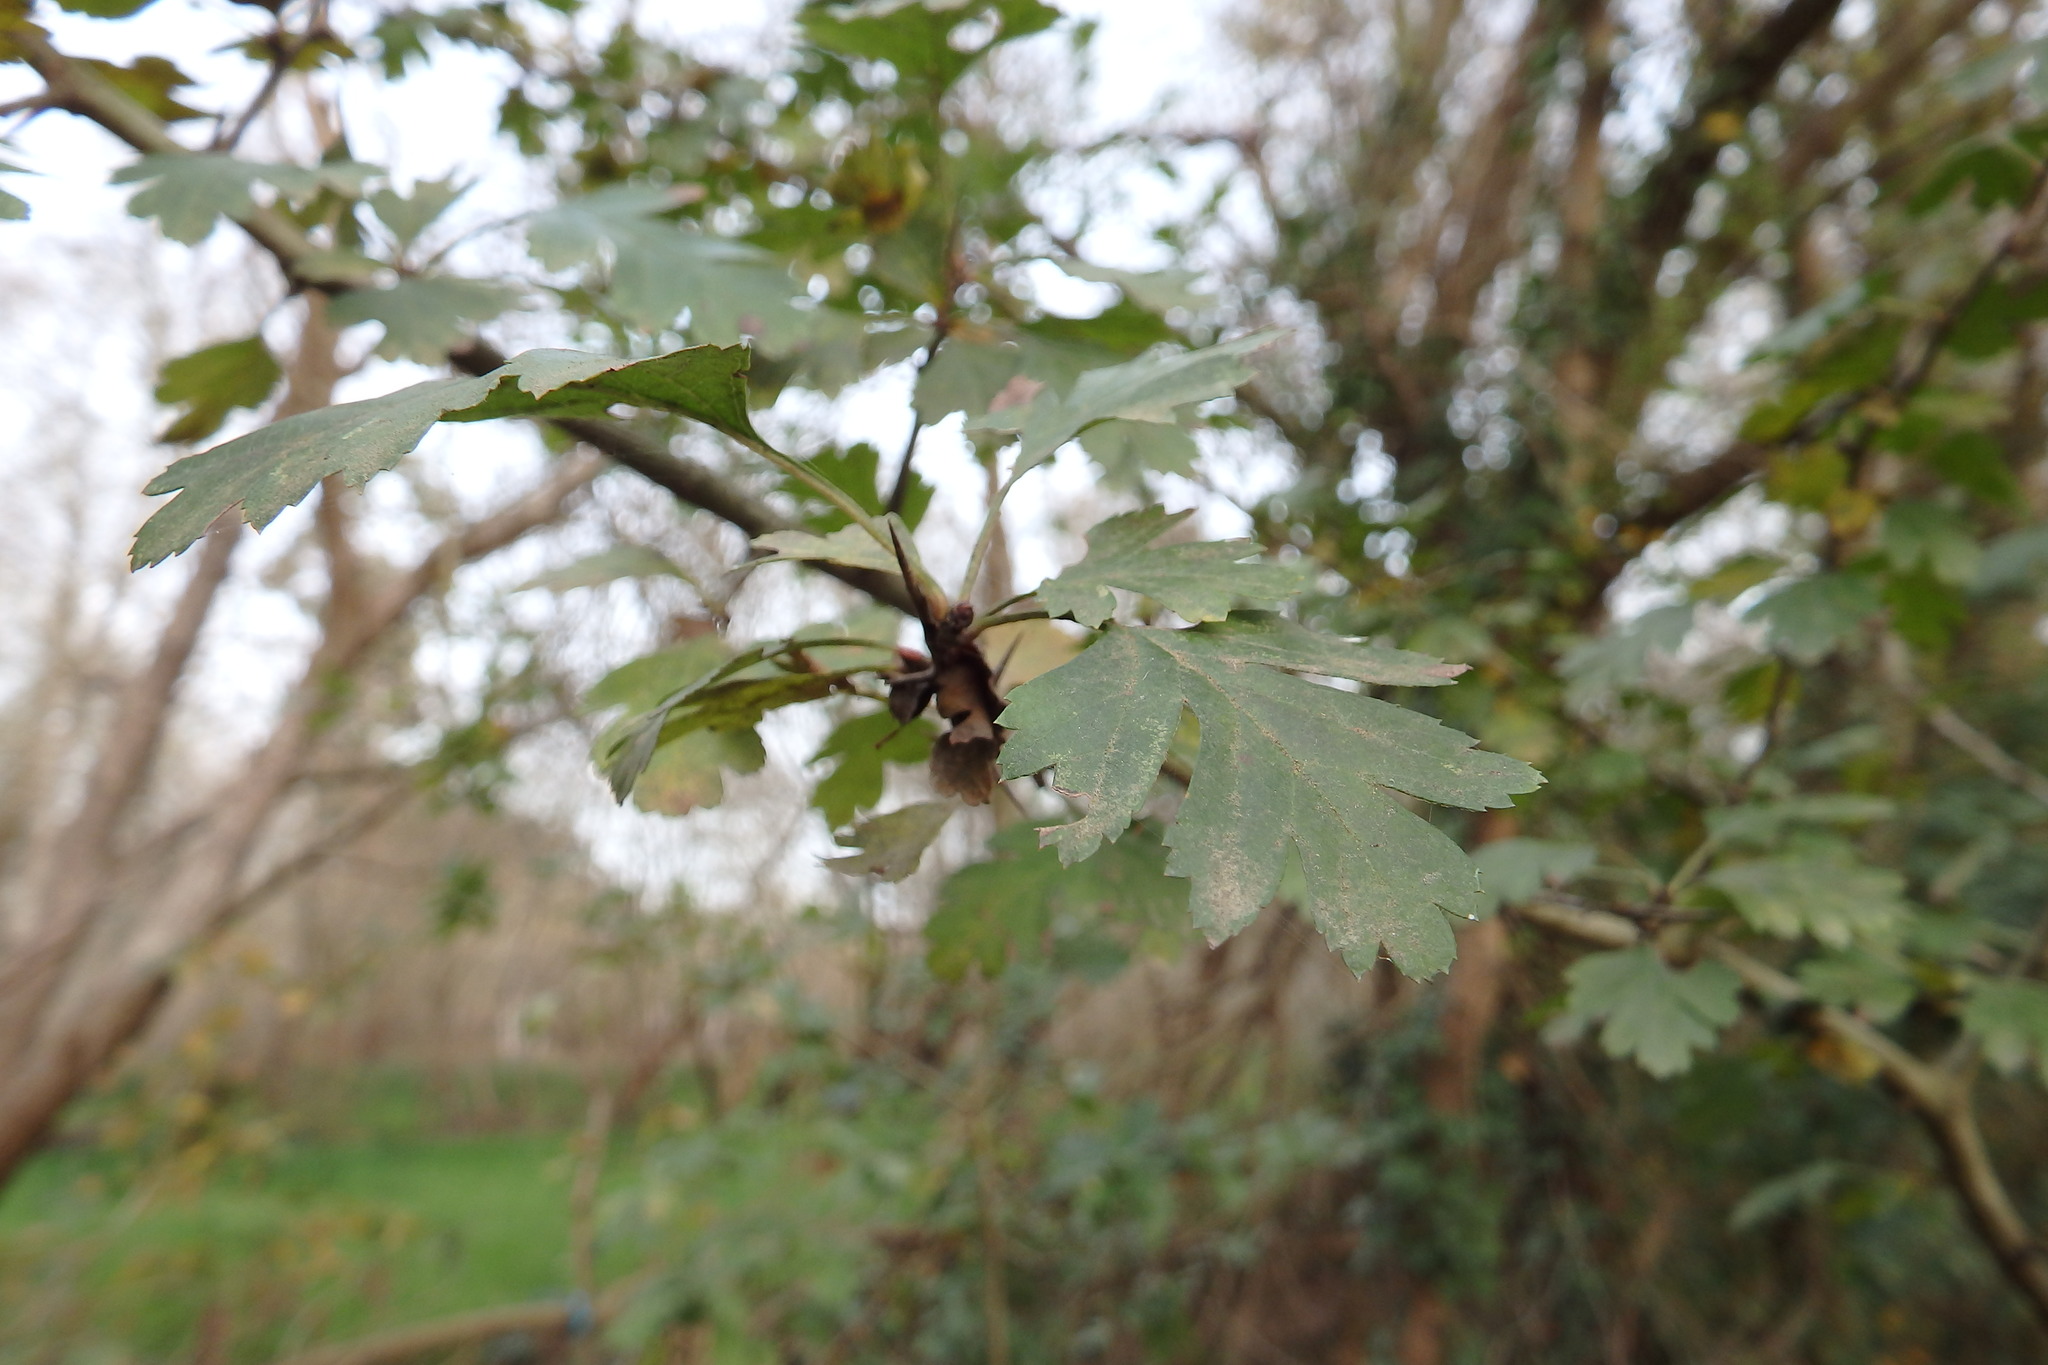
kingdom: Plantae
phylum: Tracheophyta
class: Magnoliopsida
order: Rosales
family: Rosaceae
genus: Crataegus
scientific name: Crataegus monogyna
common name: Hawthorn
